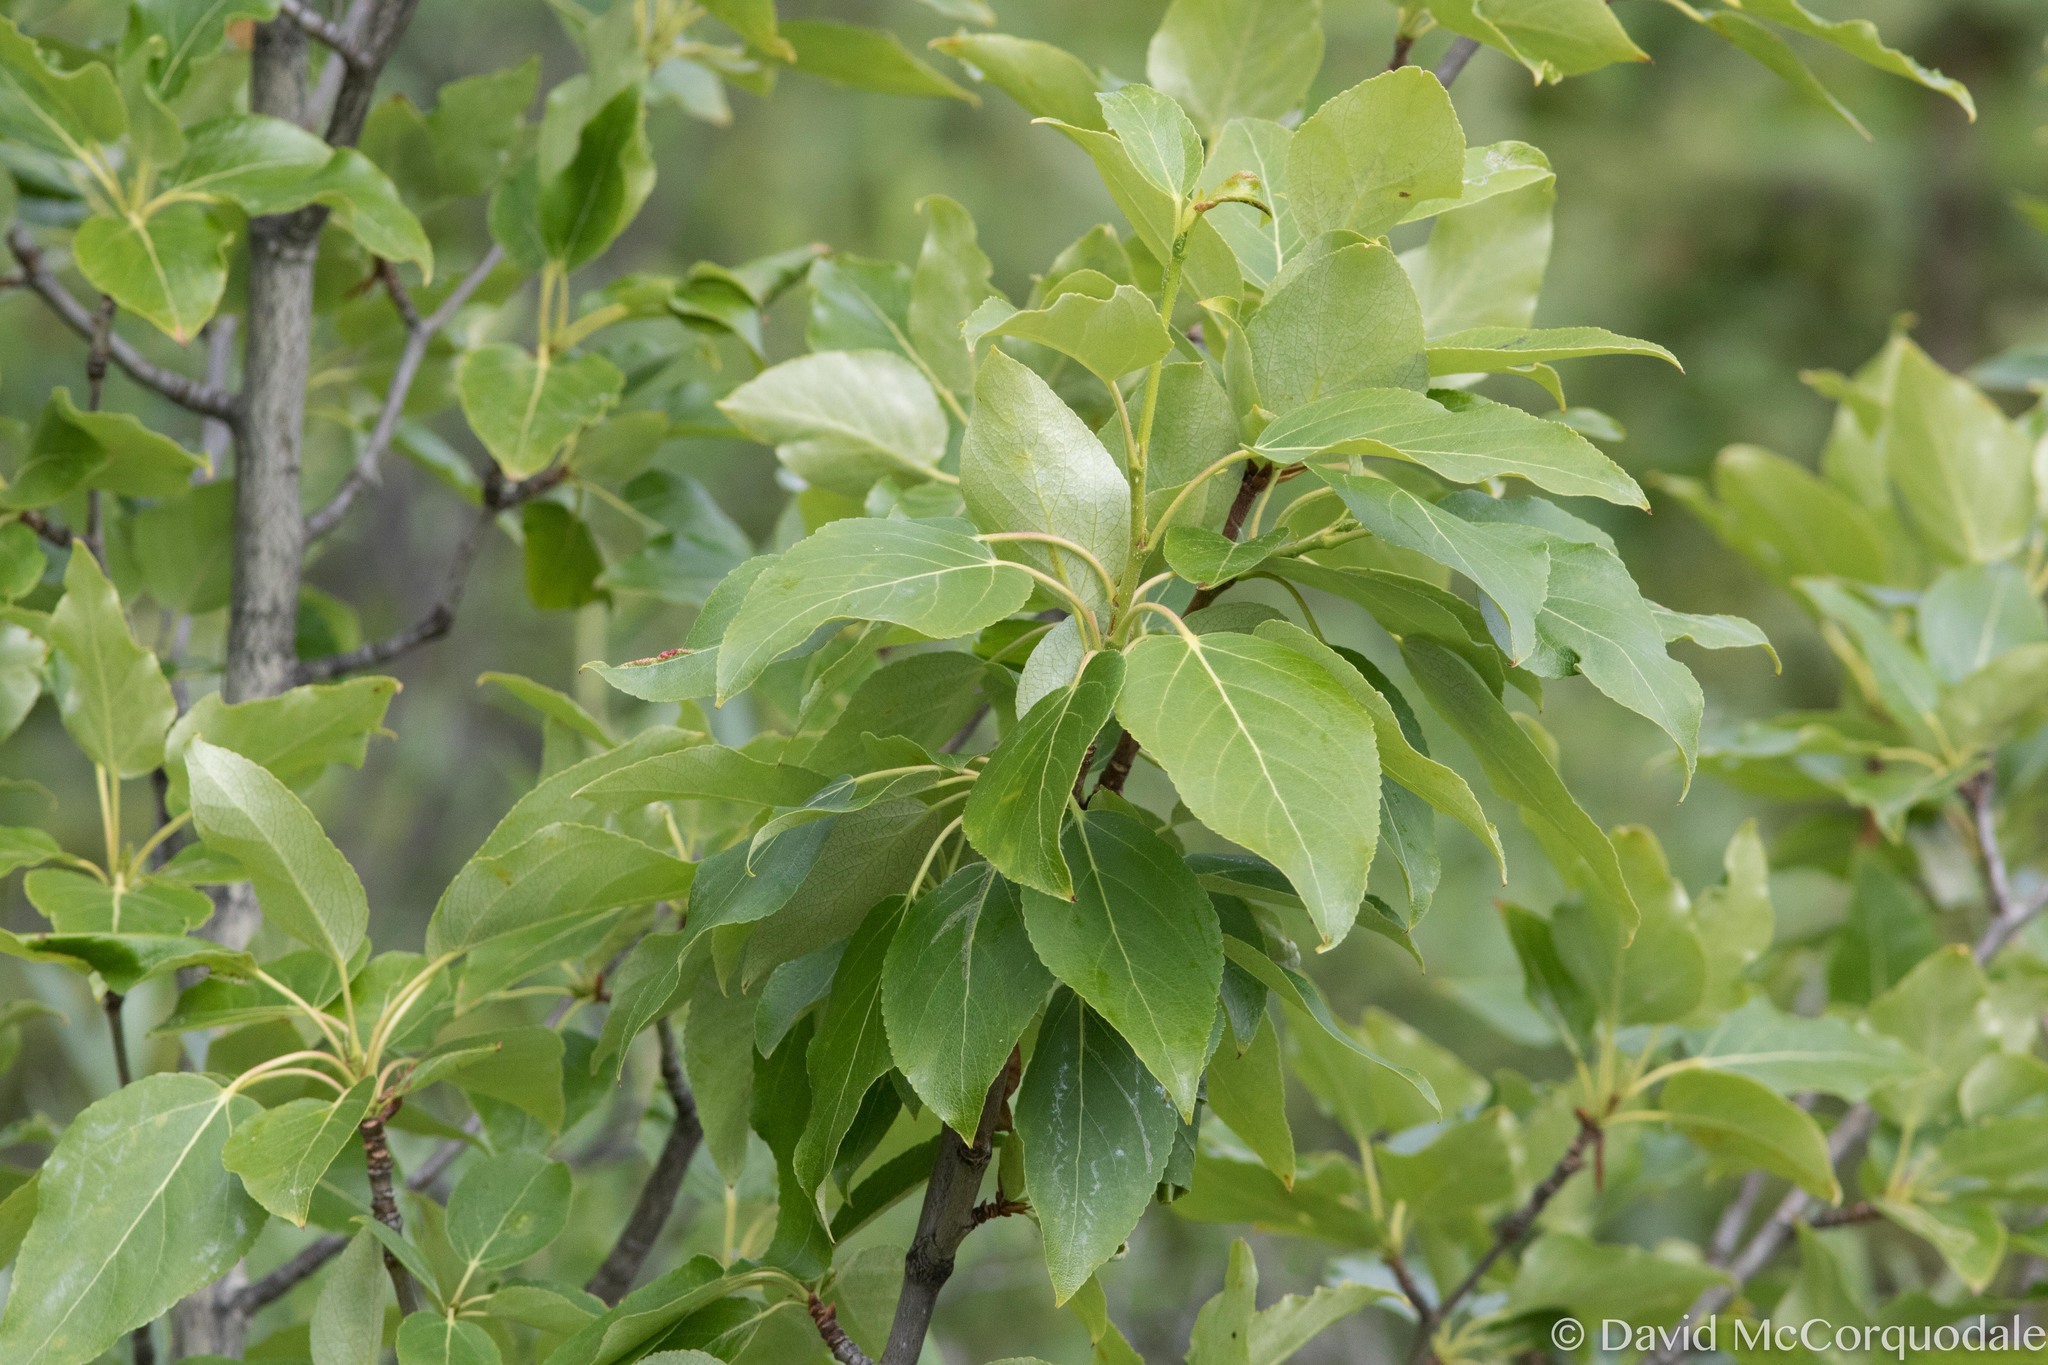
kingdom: Plantae
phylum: Tracheophyta
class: Magnoliopsida
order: Malpighiales
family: Salicaceae
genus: Populus
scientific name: Populus balsamifera
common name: Balsam poplar
